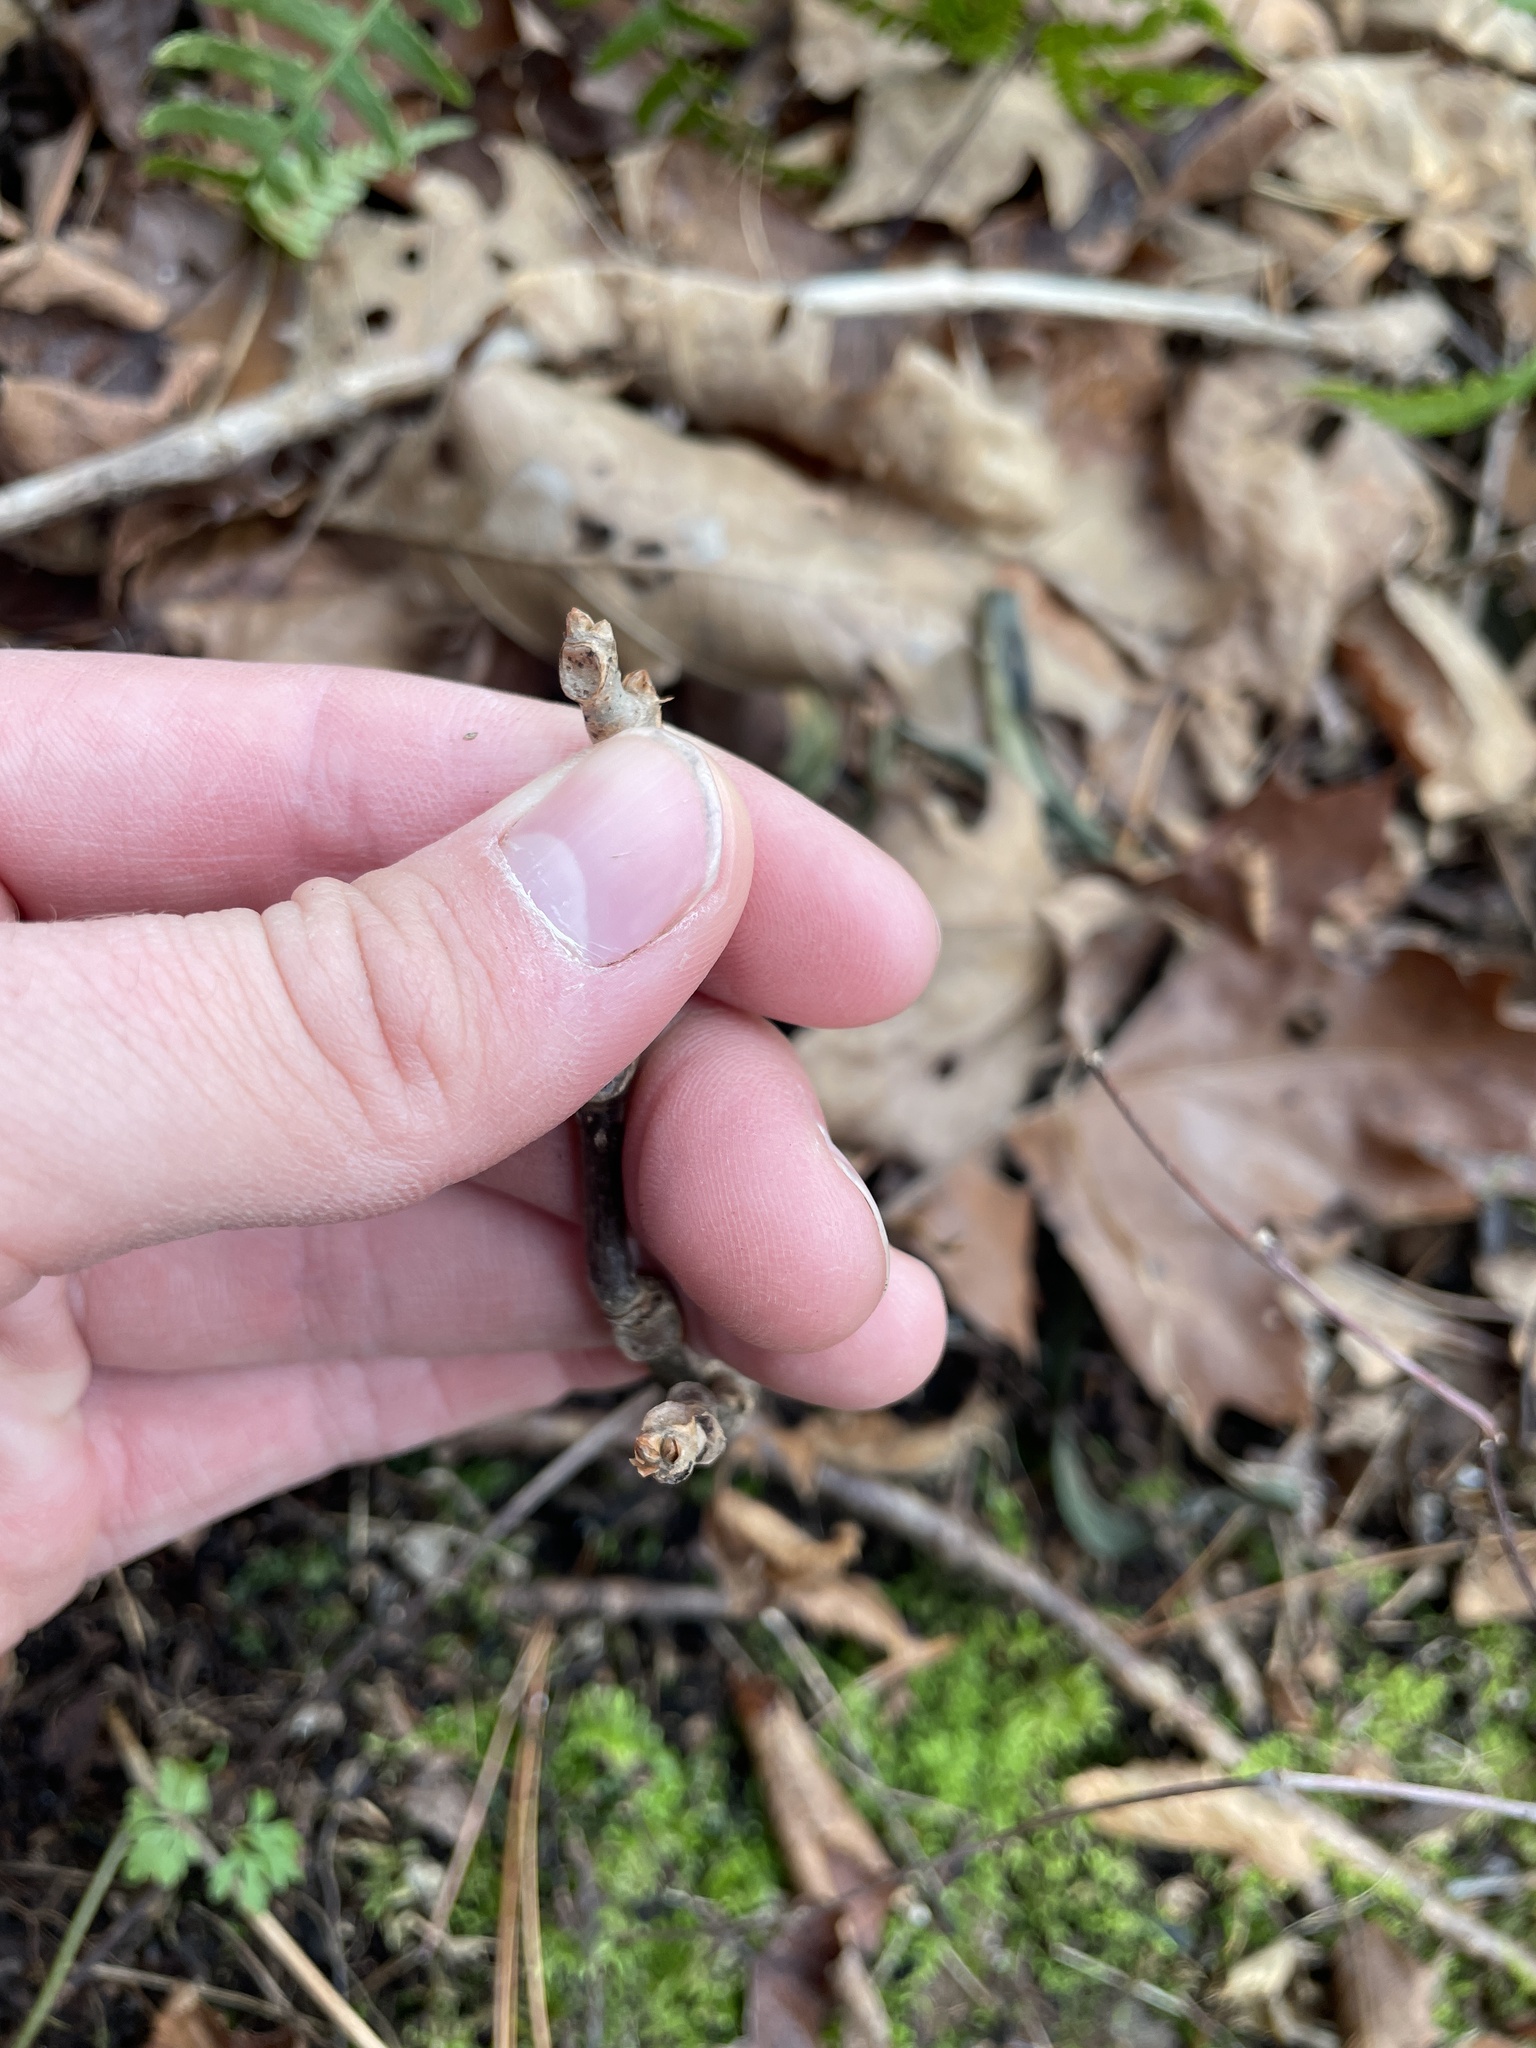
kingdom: Plantae
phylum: Tracheophyta
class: Magnoliopsida
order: Sapindales
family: Anacardiaceae
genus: Toxicodendron
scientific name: Toxicodendron rydbergii
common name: Rydberg's poison-ivy
